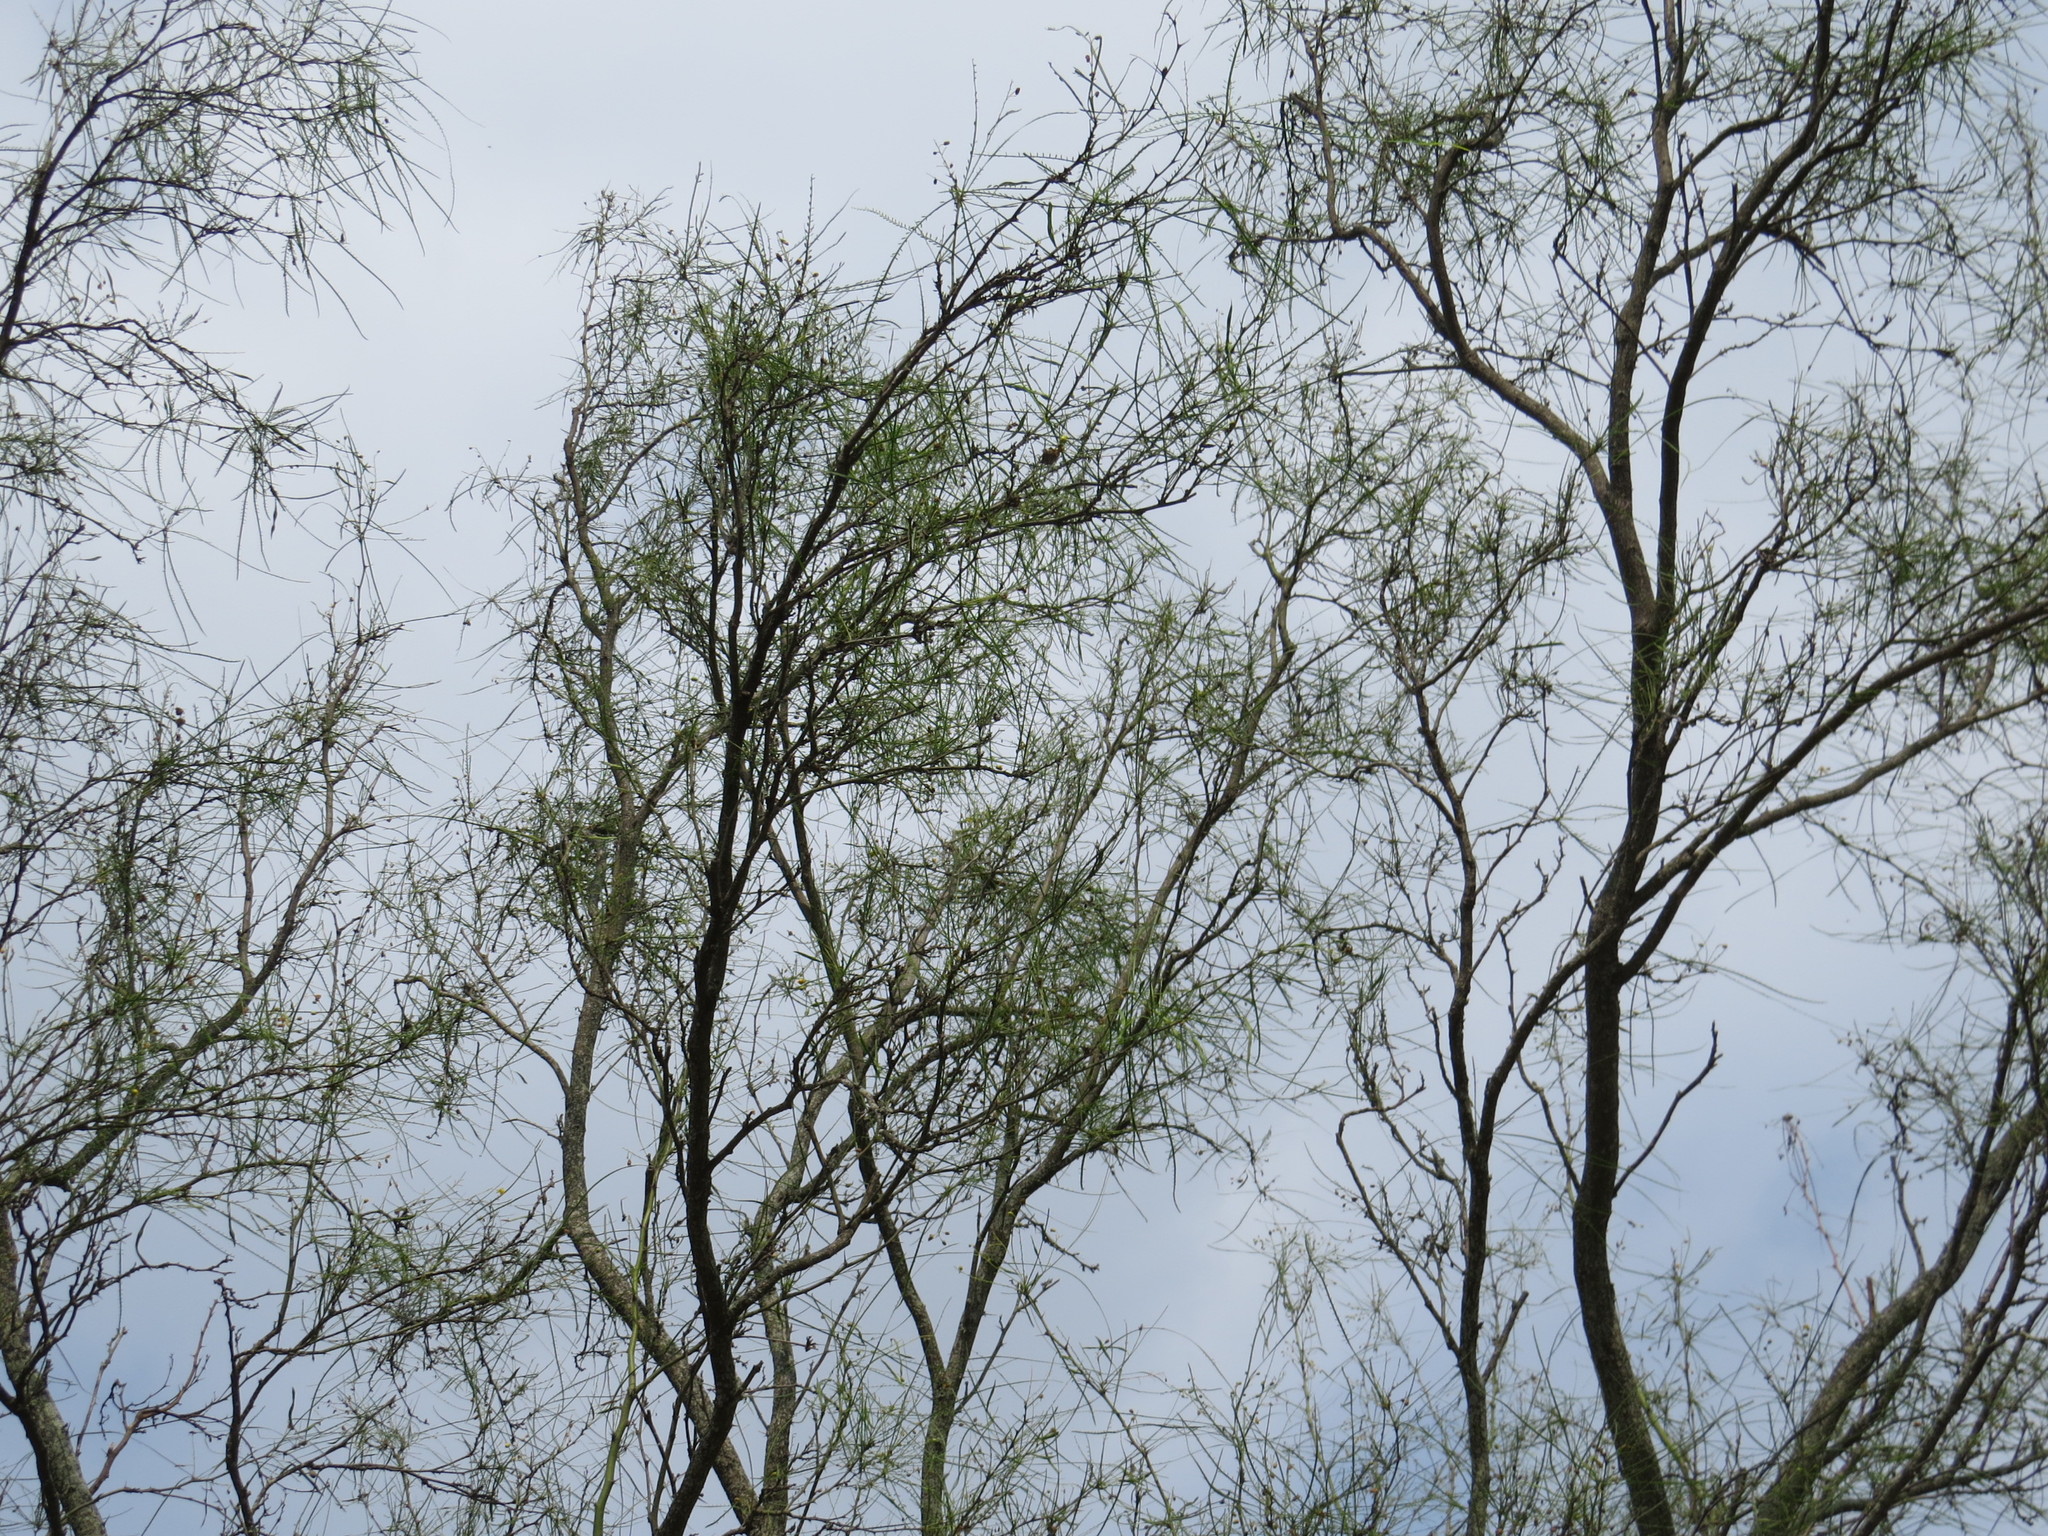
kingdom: Plantae
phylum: Tracheophyta
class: Magnoliopsida
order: Fabales
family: Fabaceae
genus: Parkinsonia
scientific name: Parkinsonia aculeata
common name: Jerusalem thorn
